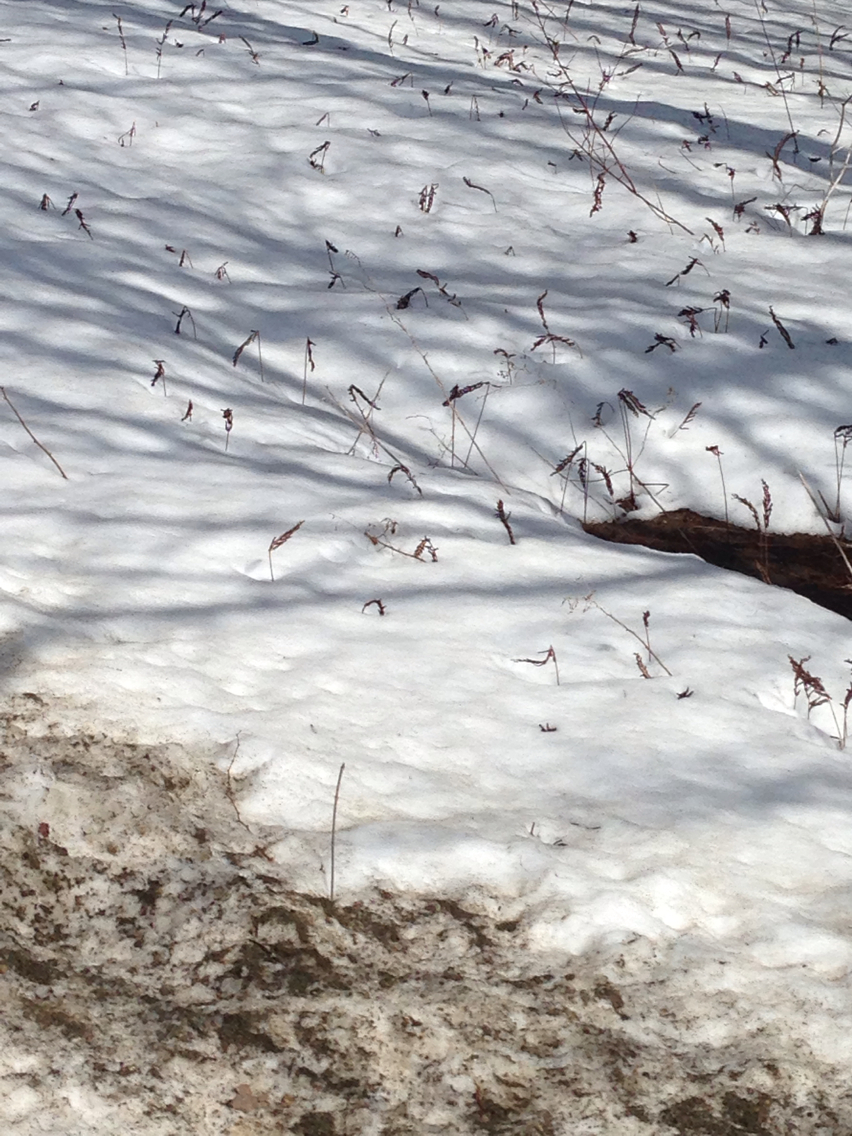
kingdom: Plantae
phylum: Tracheophyta
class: Polypodiopsida
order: Polypodiales
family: Onocleaceae
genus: Onoclea
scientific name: Onoclea sensibilis
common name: Sensitive fern
